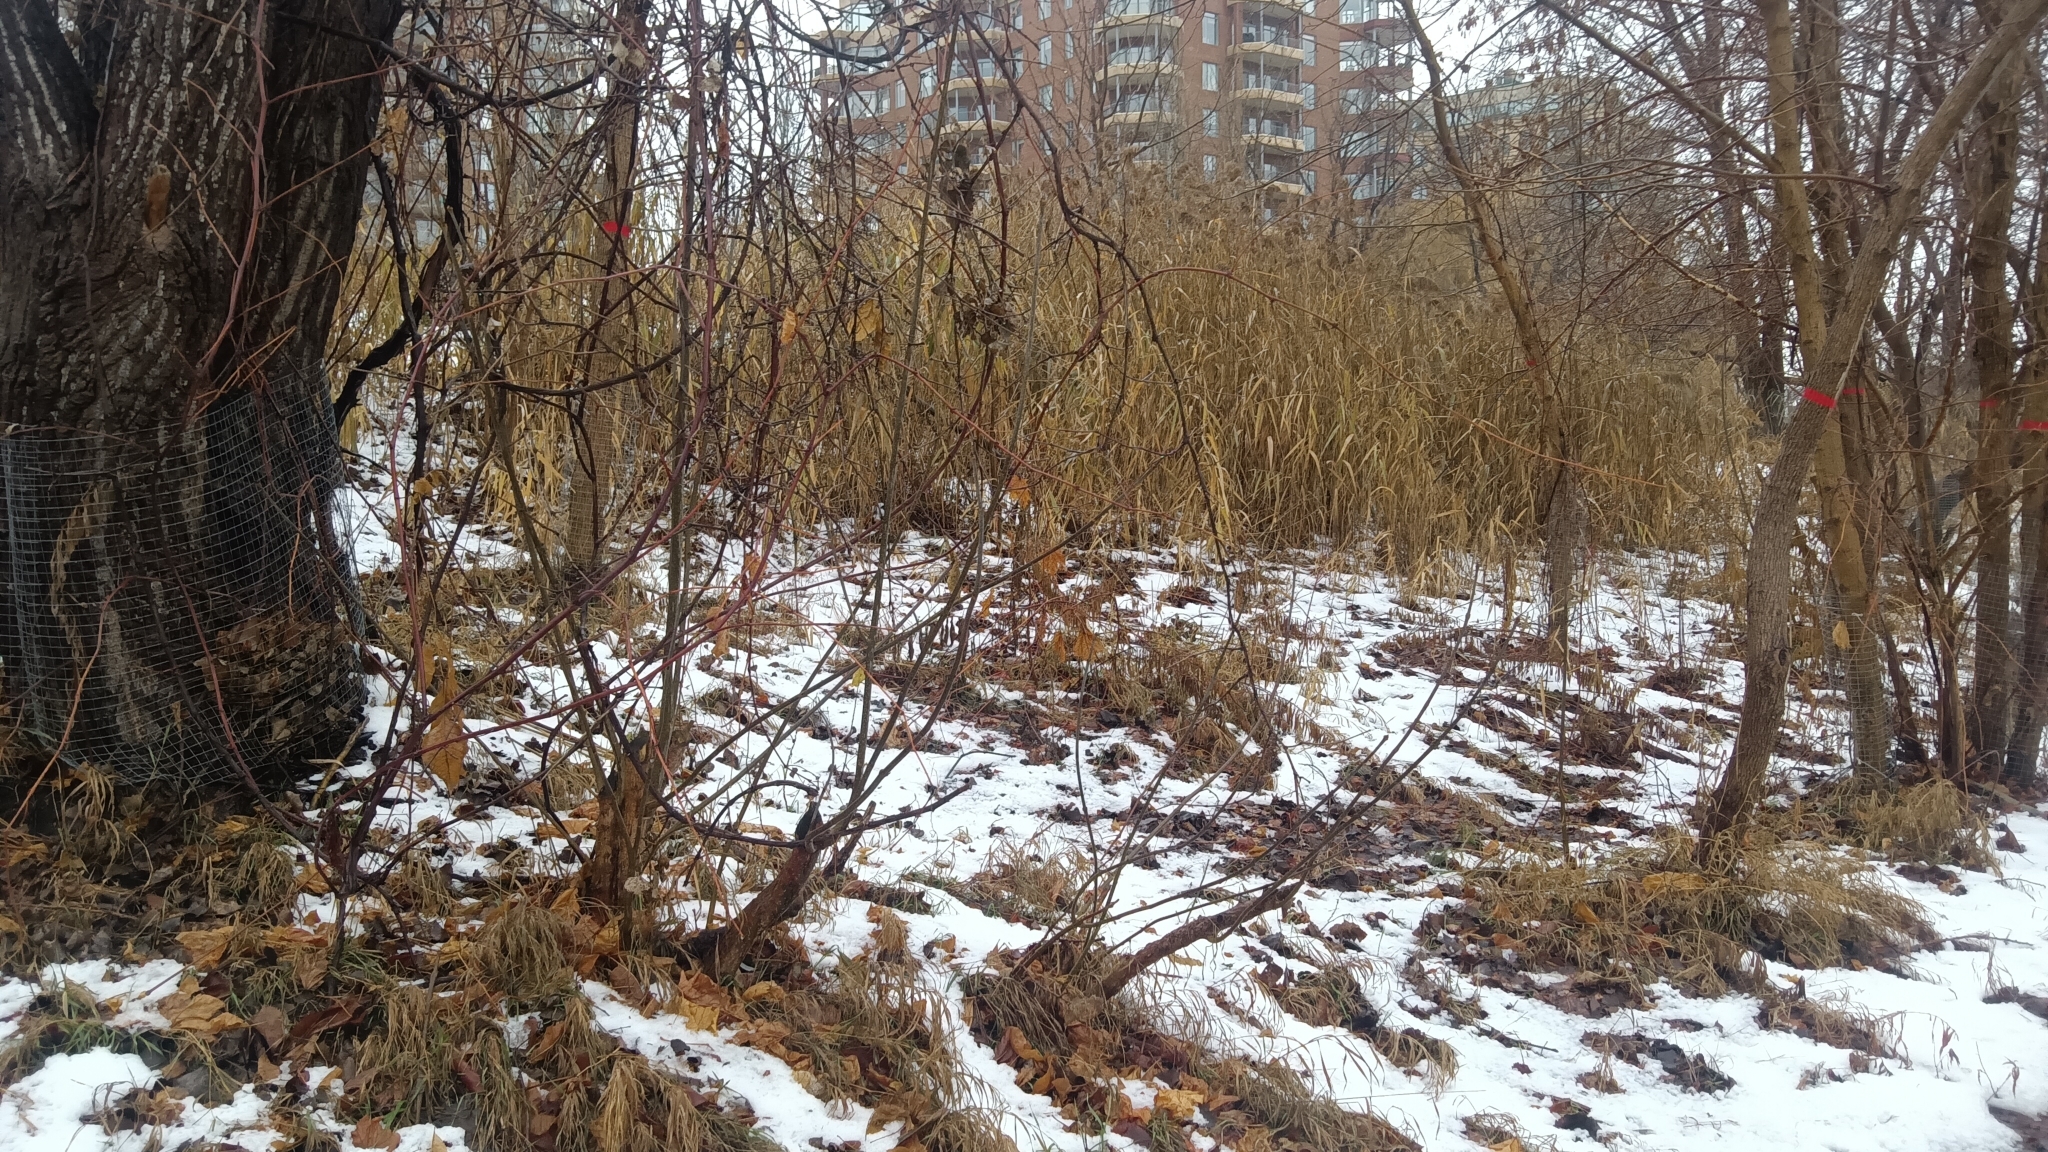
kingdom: Plantae
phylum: Tracheophyta
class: Liliopsida
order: Poales
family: Poaceae
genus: Phragmites
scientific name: Phragmites australis
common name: Common reed
